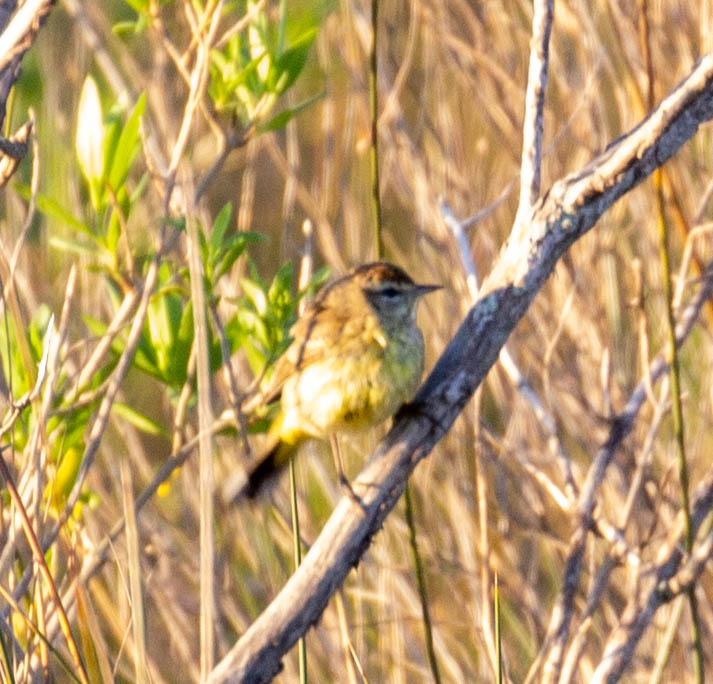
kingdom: Animalia
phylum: Chordata
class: Aves
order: Passeriformes
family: Parulidae
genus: Setophaga
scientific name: Setophaga palmarum
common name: Palm warbler
